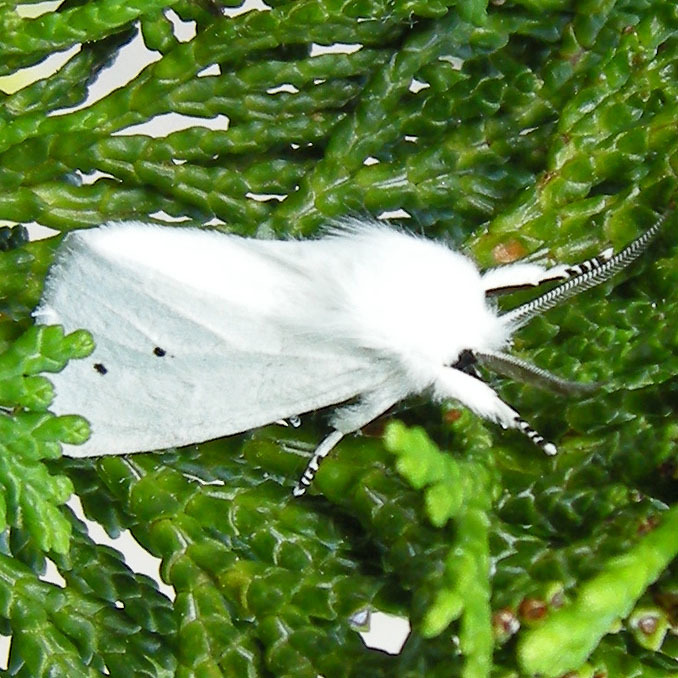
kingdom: Animalia
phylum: Arthropoda
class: Insecta
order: Lepidoptera
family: Erebidae
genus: Spilosoma
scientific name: Spilosoma virginica
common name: Virginia tiger moth
